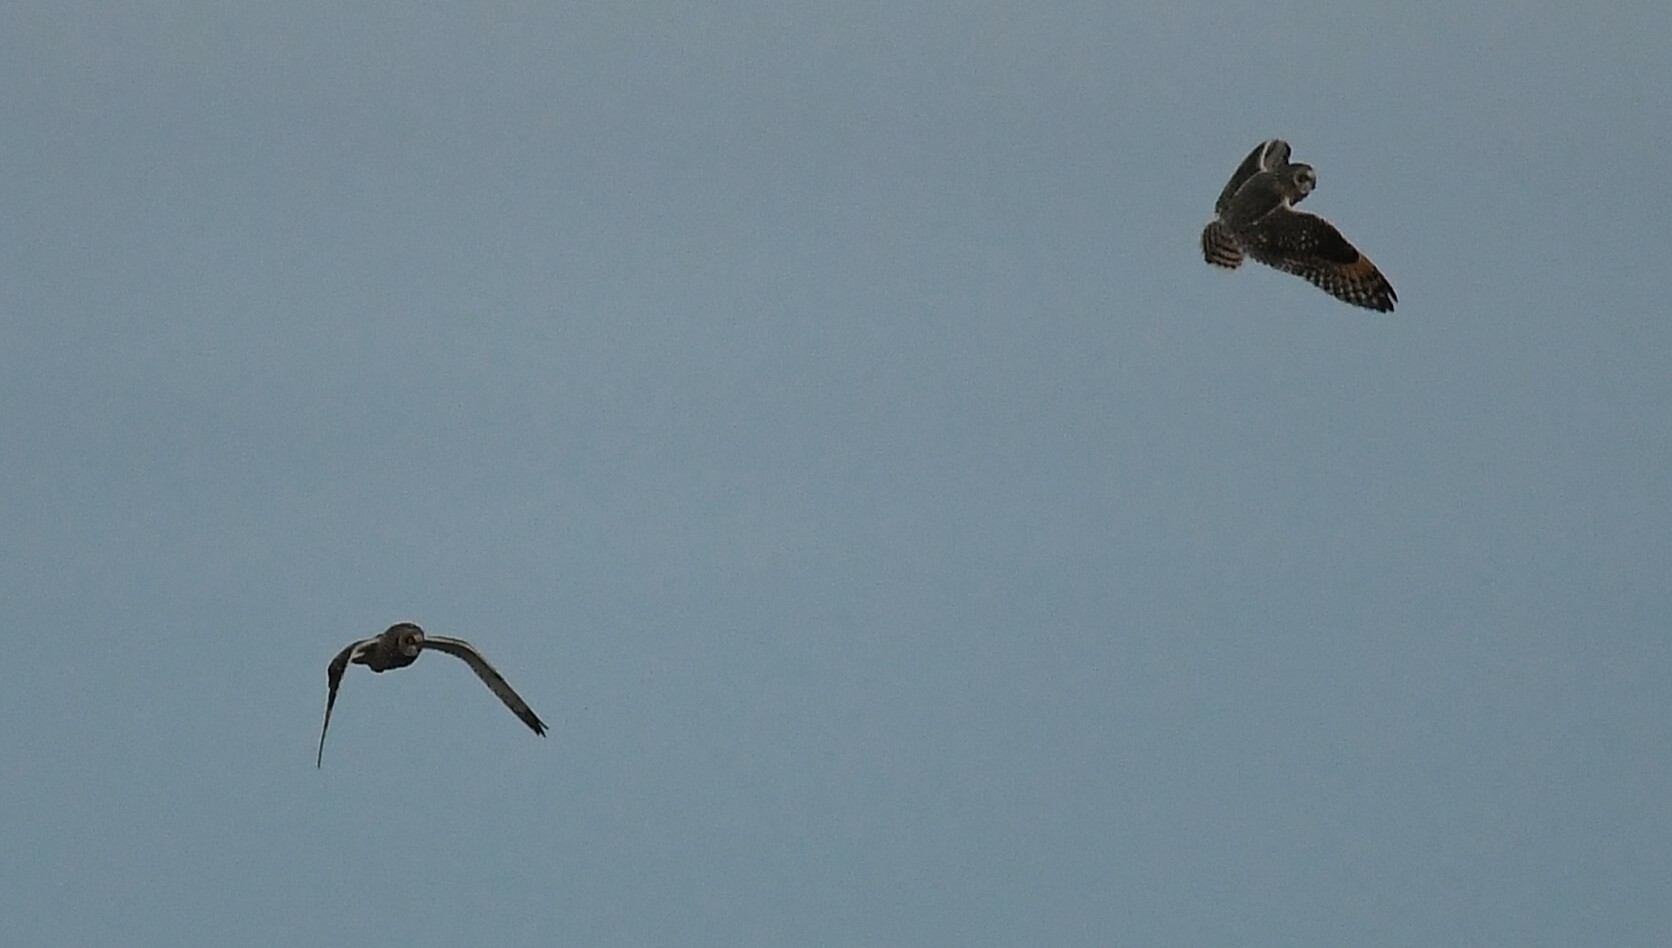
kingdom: Animalia
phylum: Chordata
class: Aves
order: Strigiformes
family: Strigidae
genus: Asio
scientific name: Asio flammeus
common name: Short-eared owl
